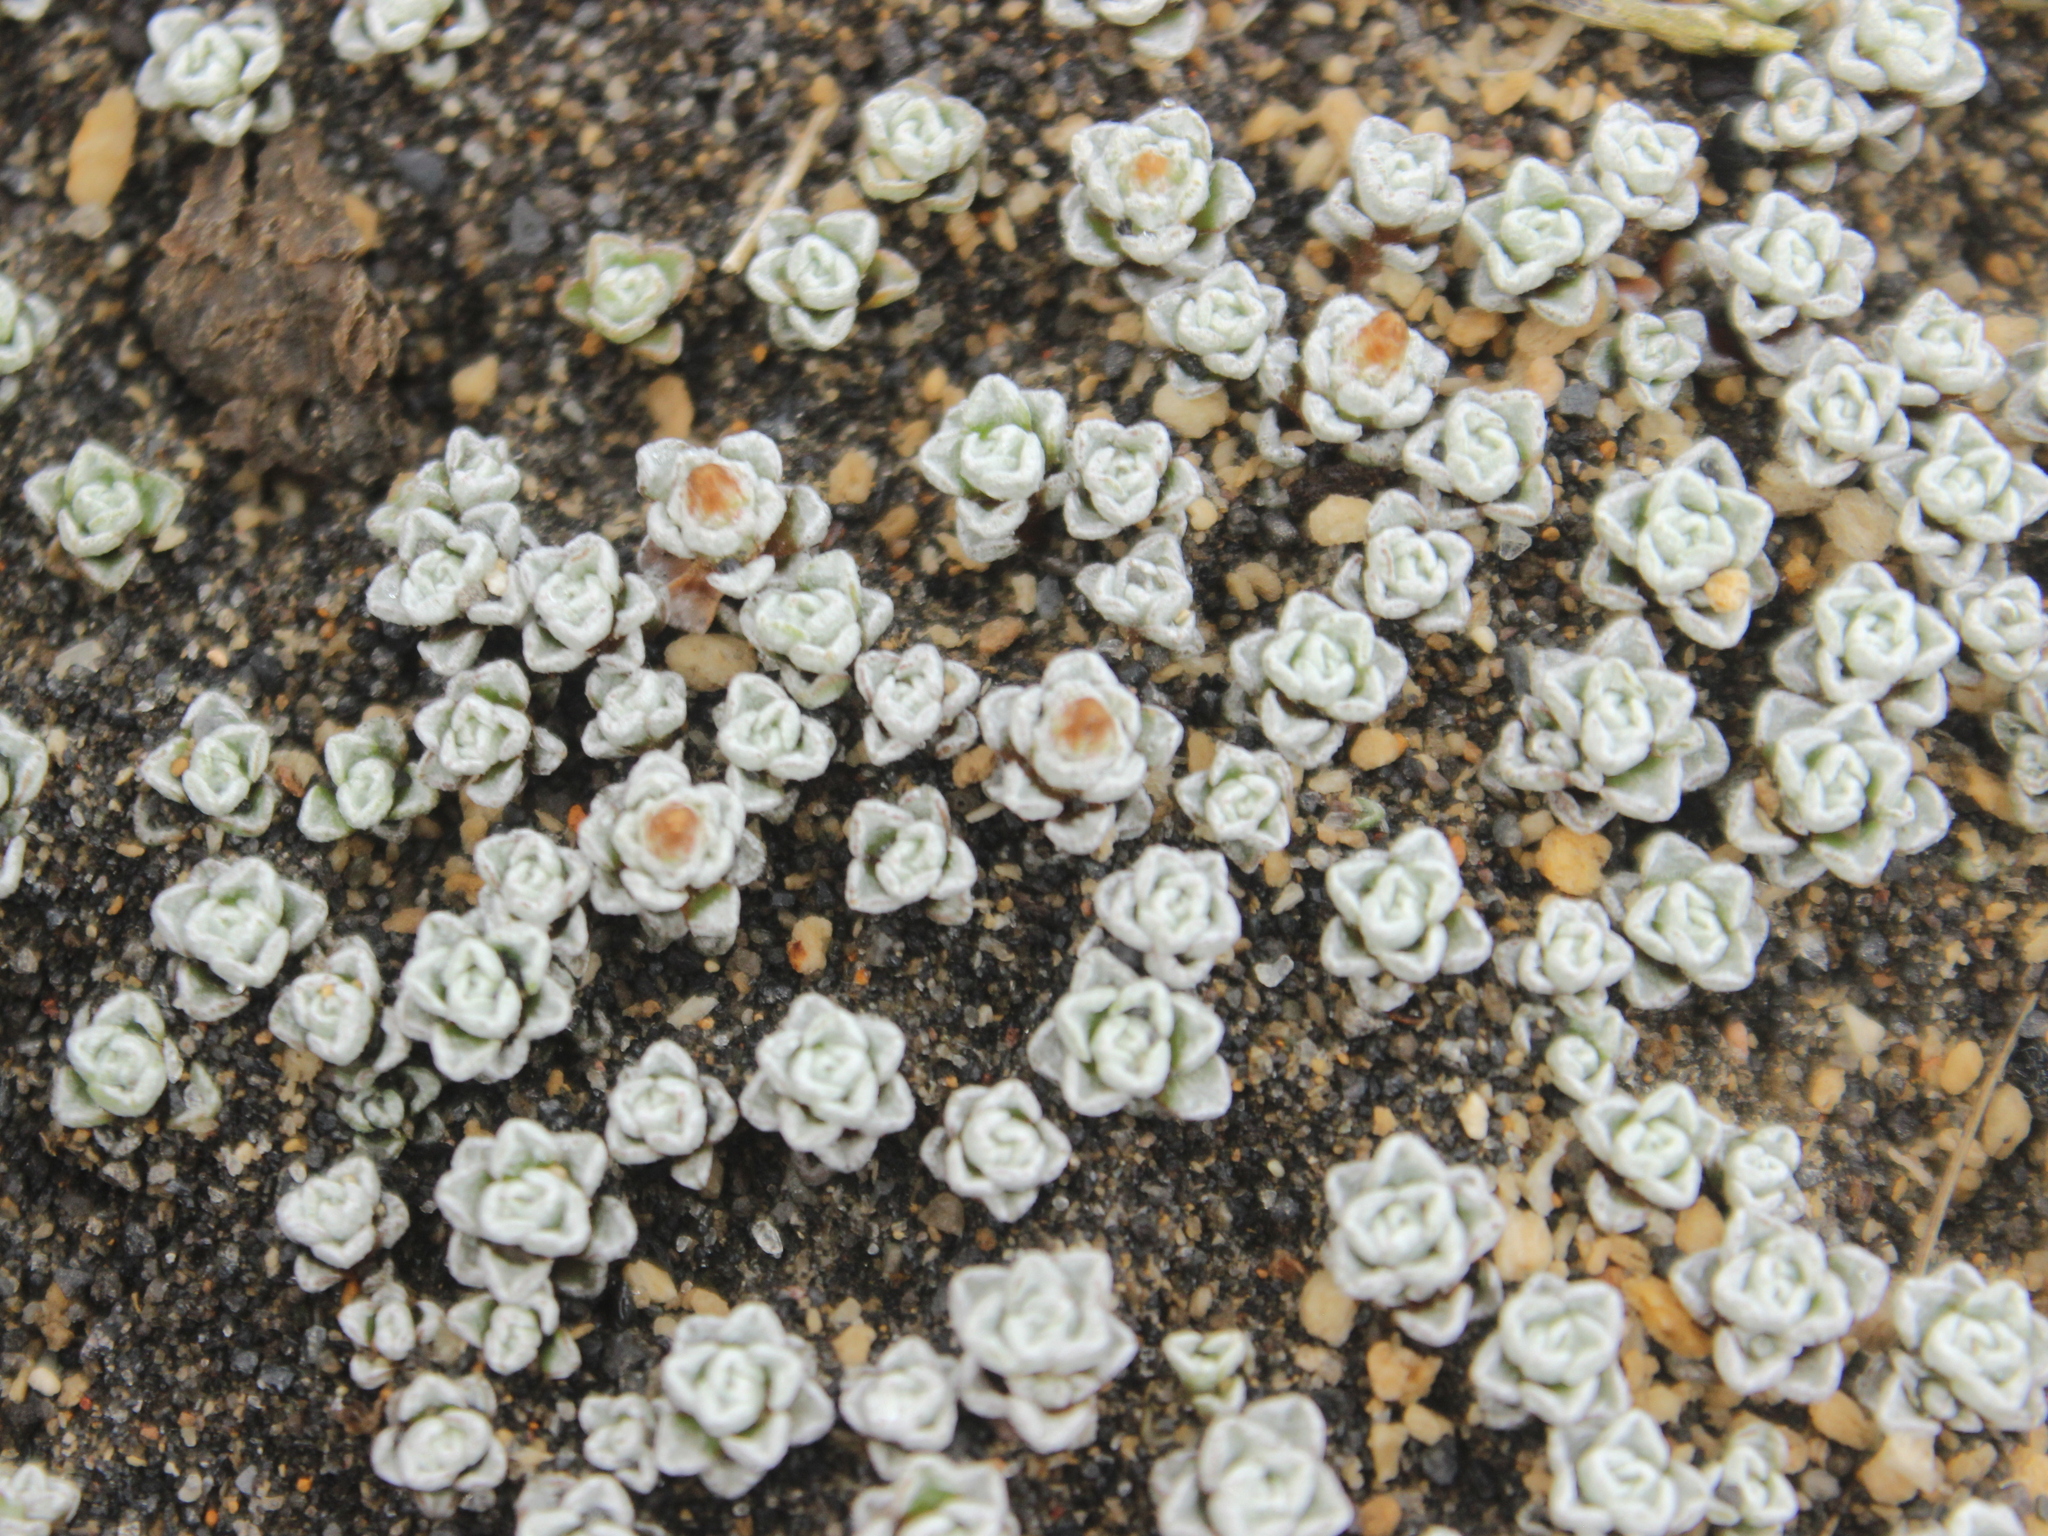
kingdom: Plantae
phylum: Tracheophyta
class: Magnoliopsida
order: Asterales
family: Asteraceae
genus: Raoulia
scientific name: Raoulia albosericea
